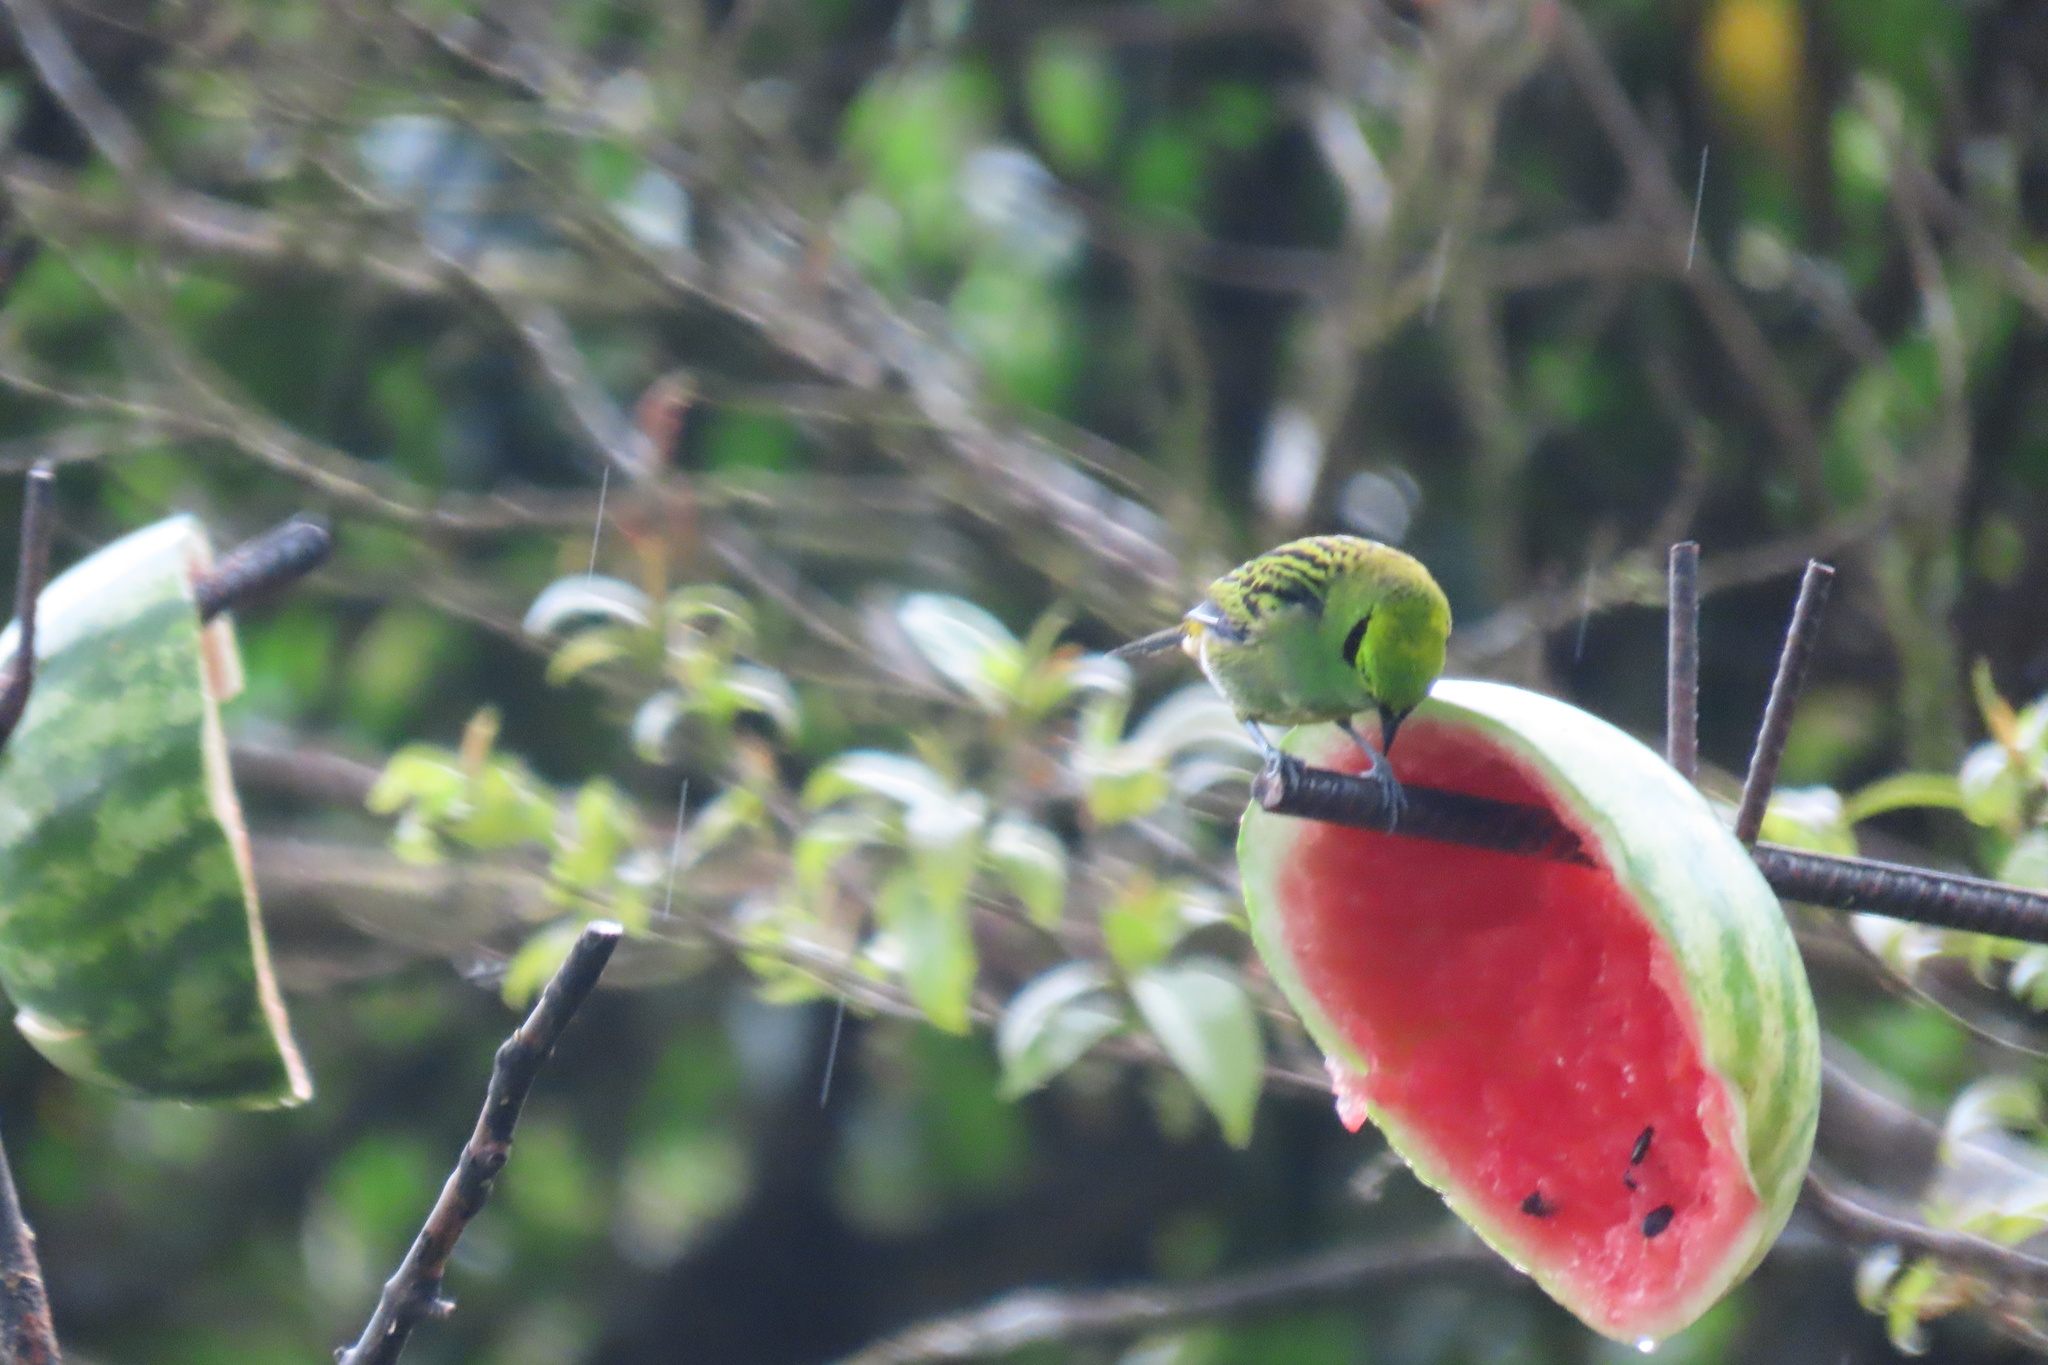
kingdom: Animalia
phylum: Chordata
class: Aves
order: Passeriformes
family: Thraupidae
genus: Tangara
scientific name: Tangara florida
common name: Emerald tanager
